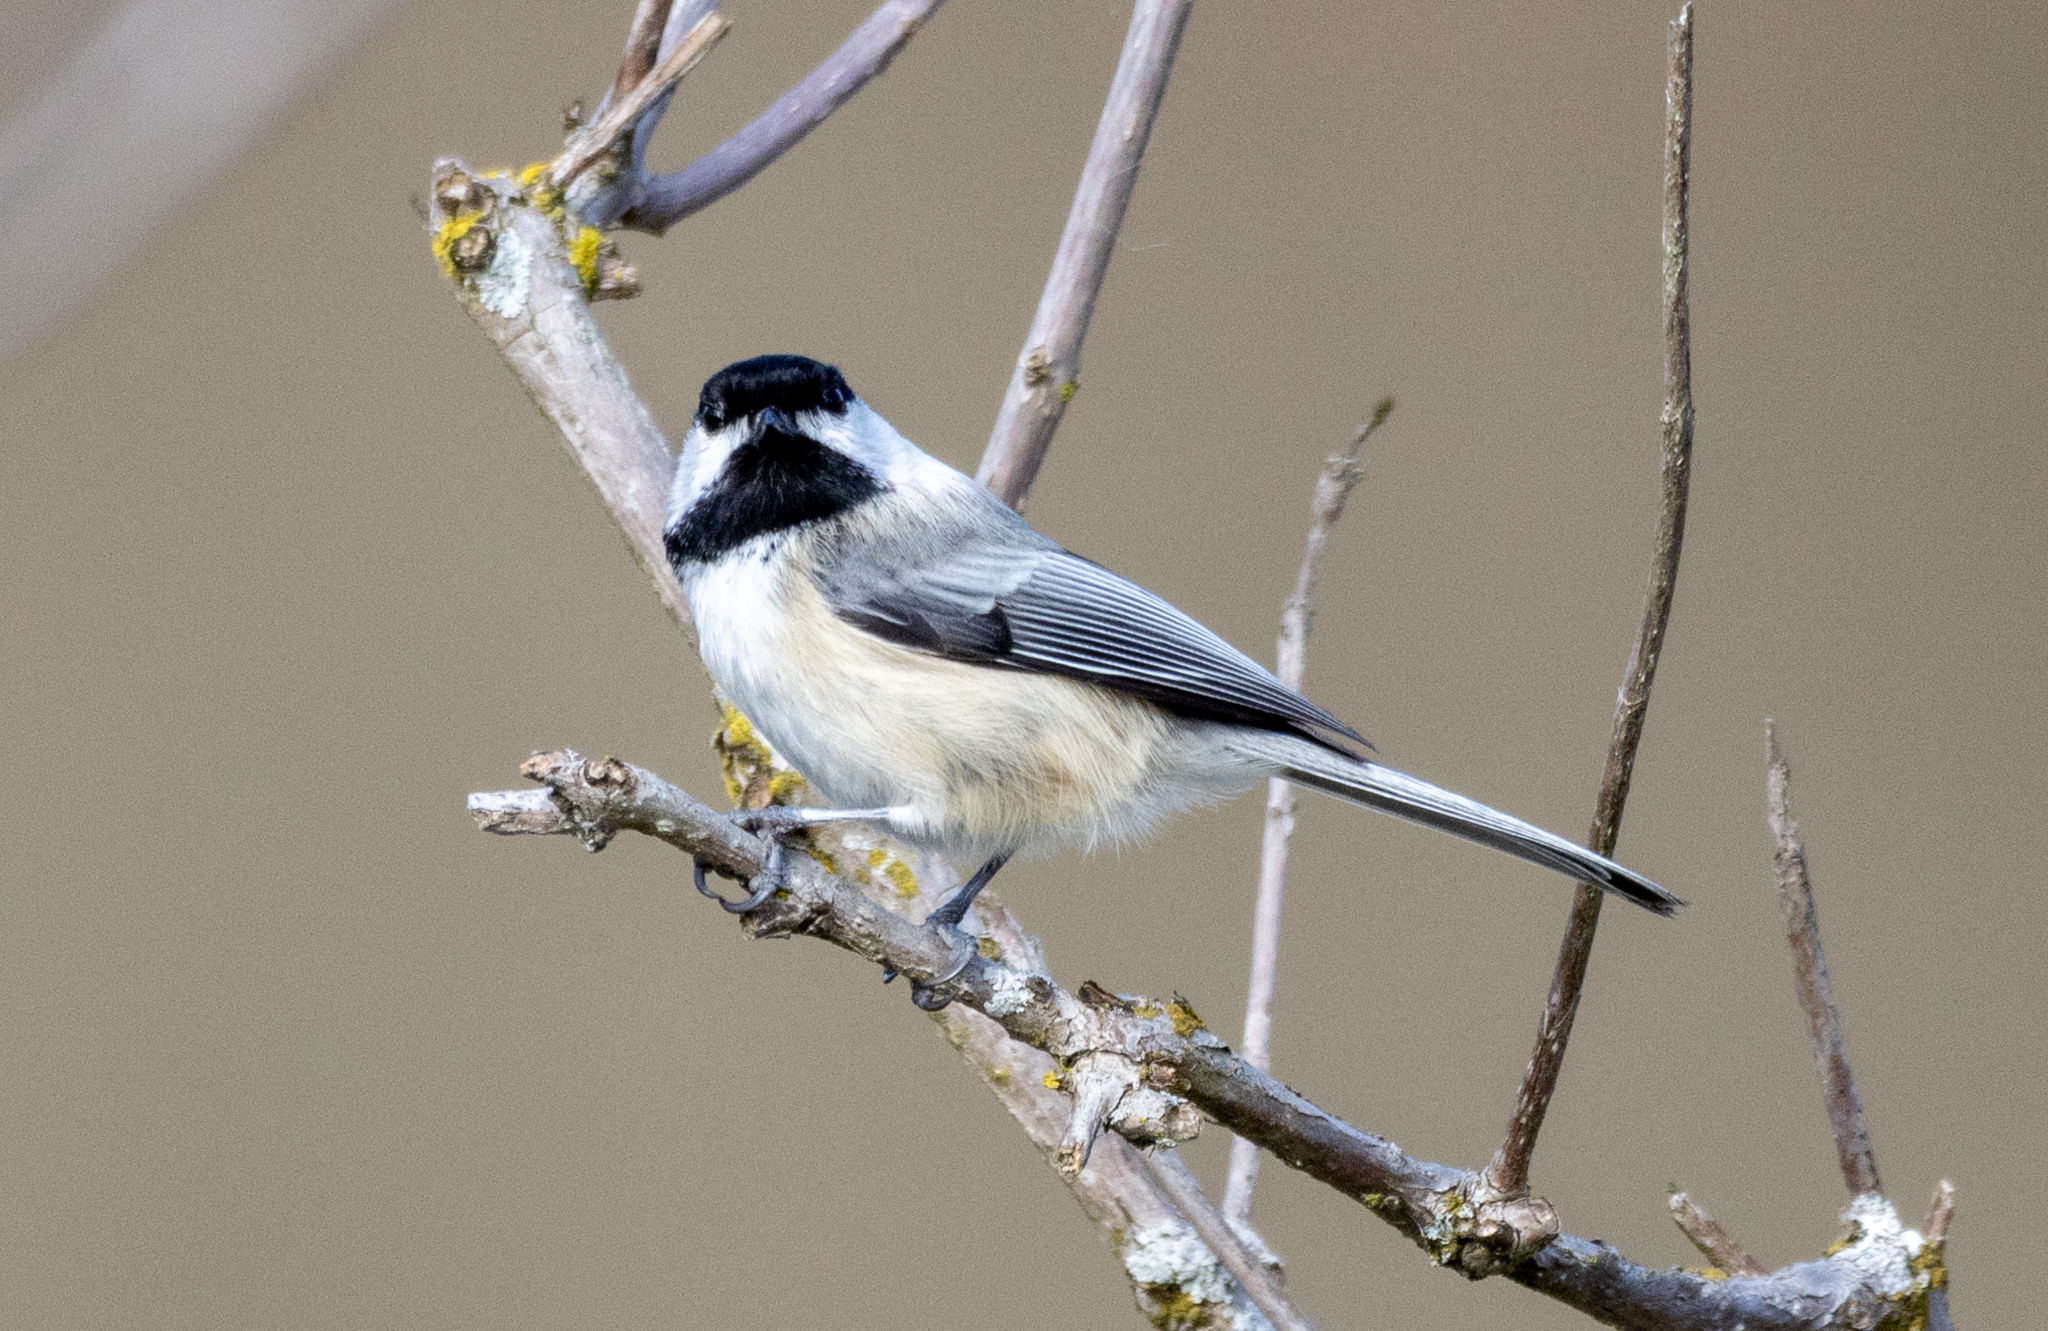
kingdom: Animalia
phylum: Chordata
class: Aves
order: Passeriformes
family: Paridae
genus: Poecile
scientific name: Poecile atricapillus
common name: Black-capped chickadee
